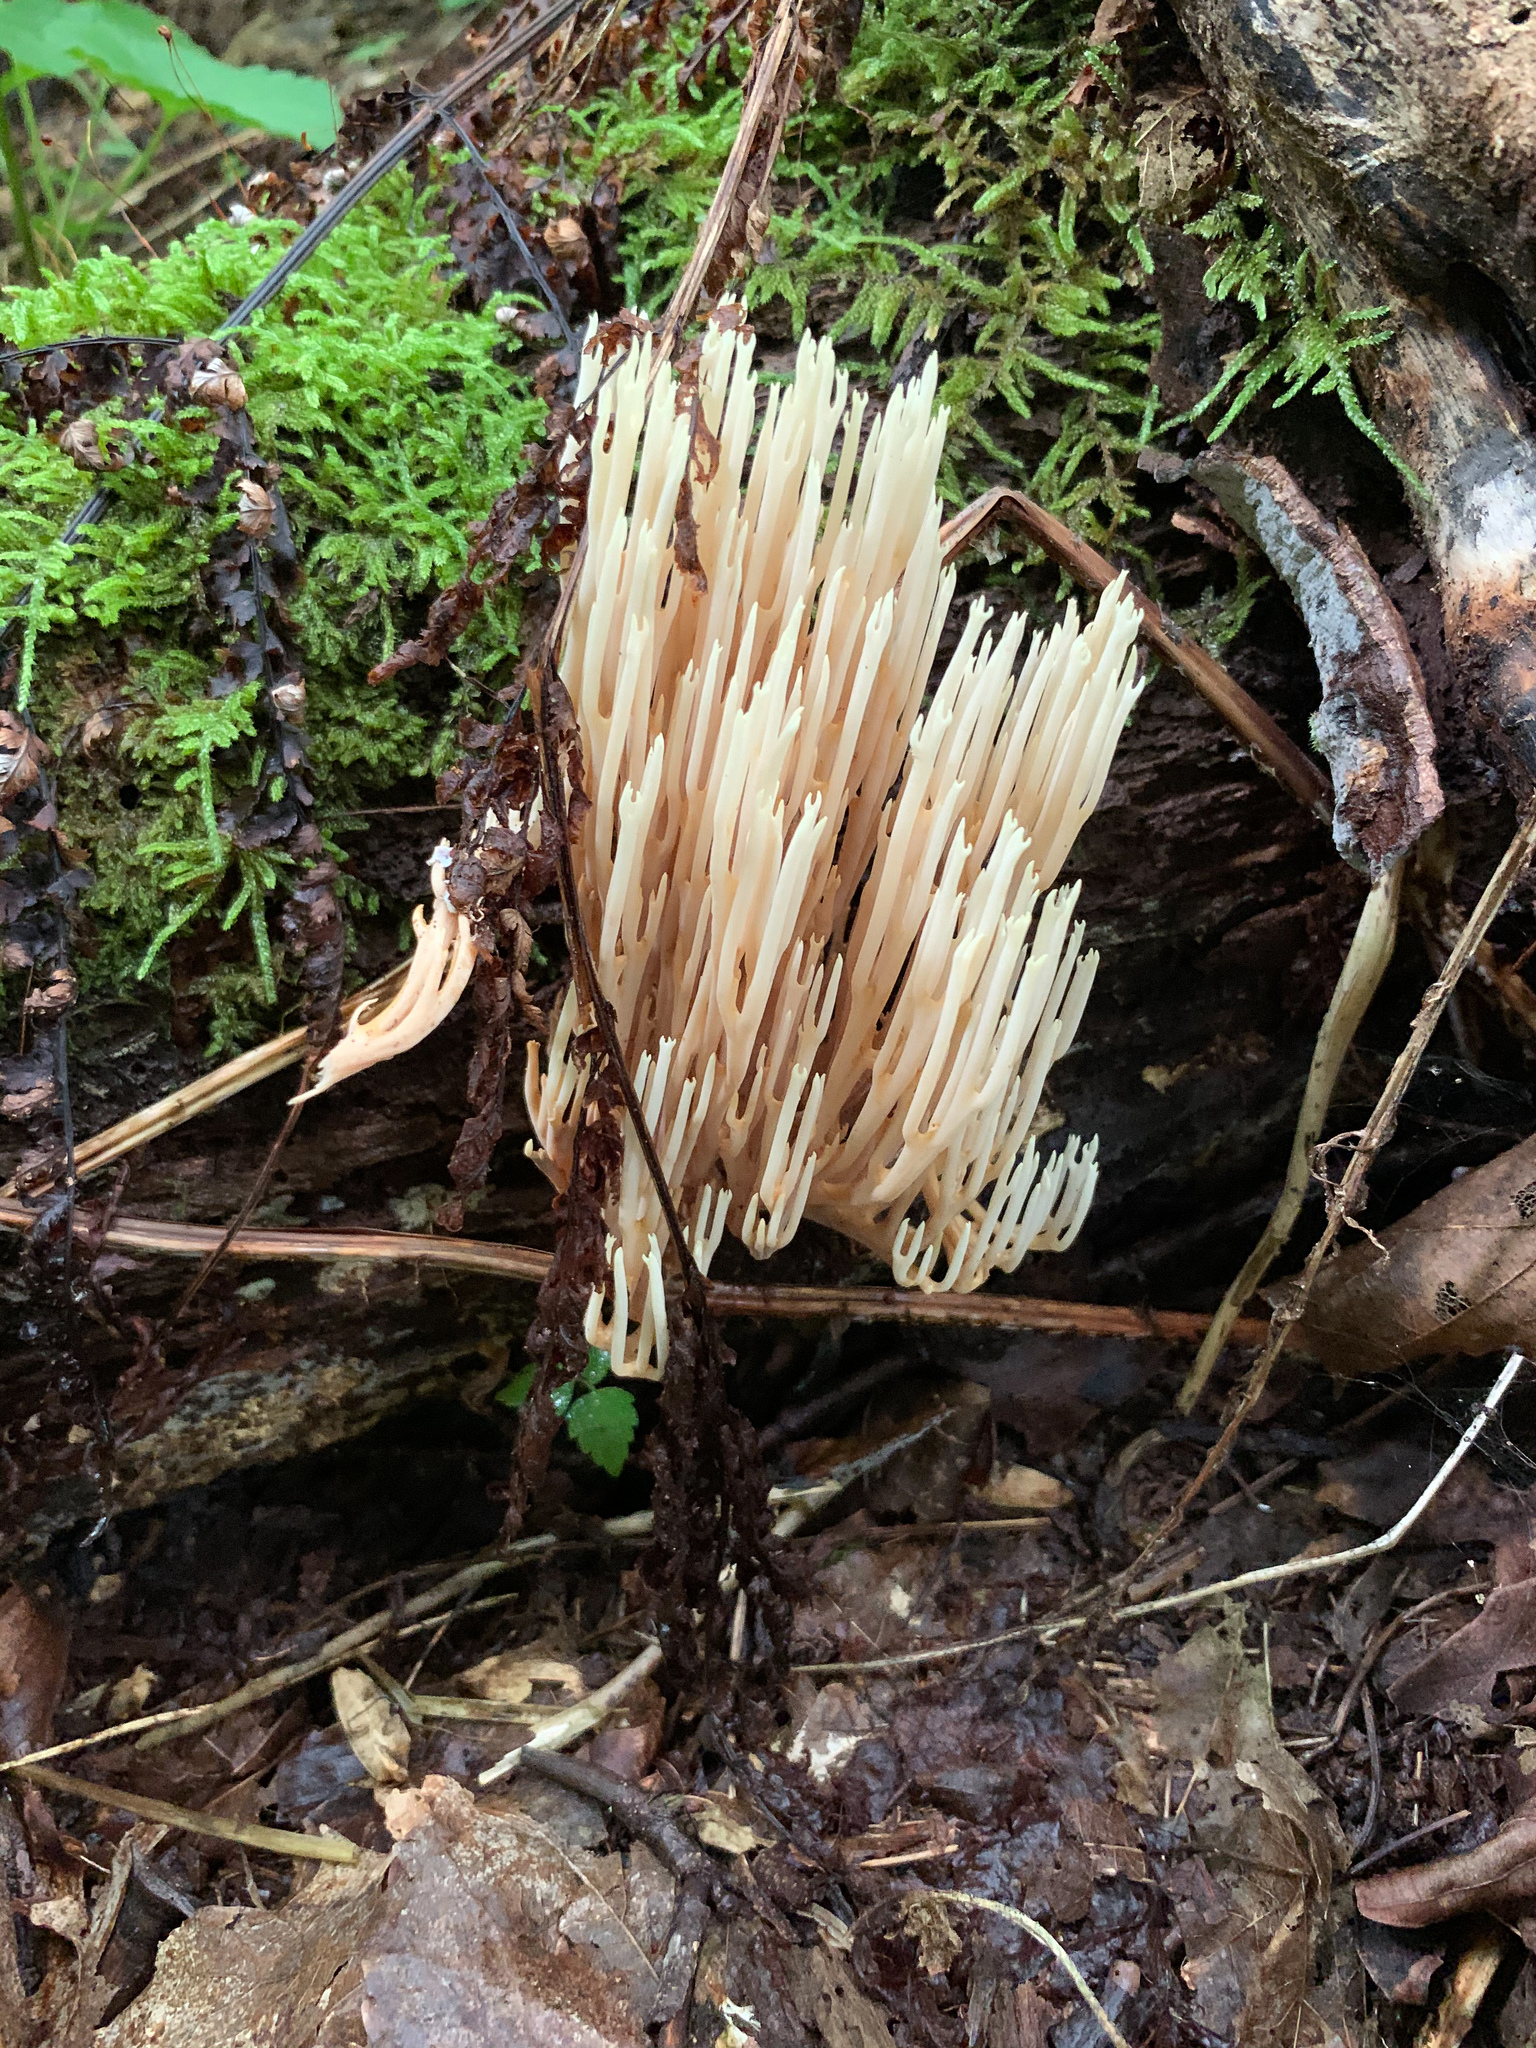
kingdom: Fungi
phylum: Basidiomycota
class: Agaricomycetes
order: Gomphales
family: Gomphaceae
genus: Ramaria
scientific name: Ramaria stricta
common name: Upright coral
